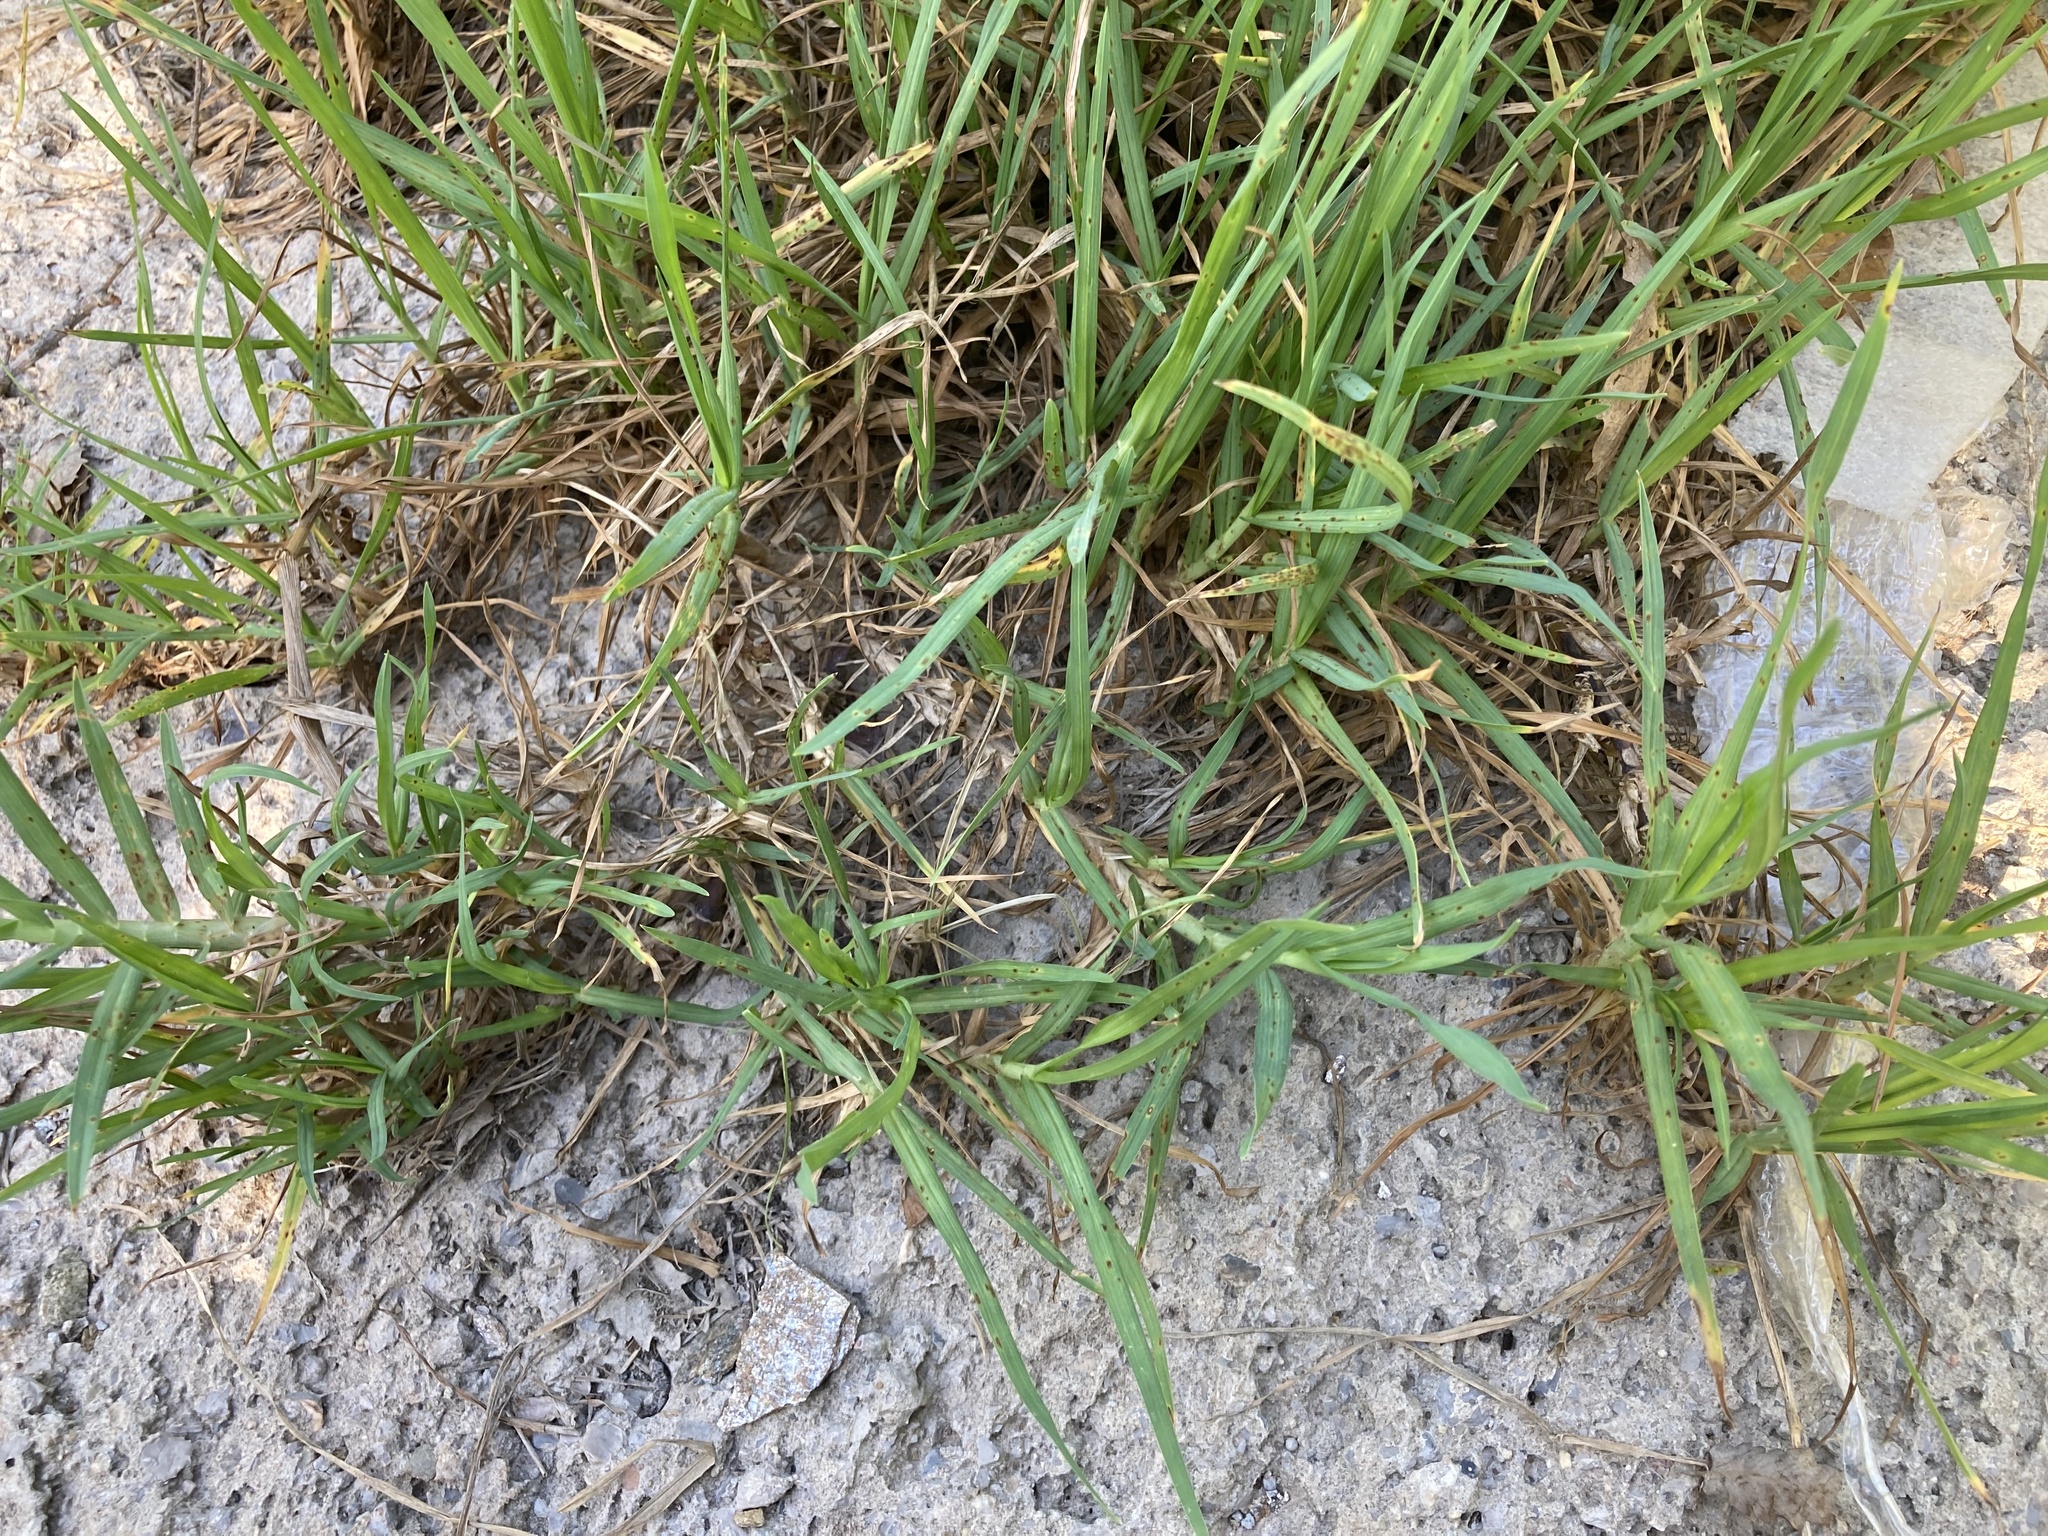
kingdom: Plantae
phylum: Tracheophyta
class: Liliopsida
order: Poales
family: Poaceae
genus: Cenchrus
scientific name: Cenchrus clandestinus
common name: Kikuyugrass
